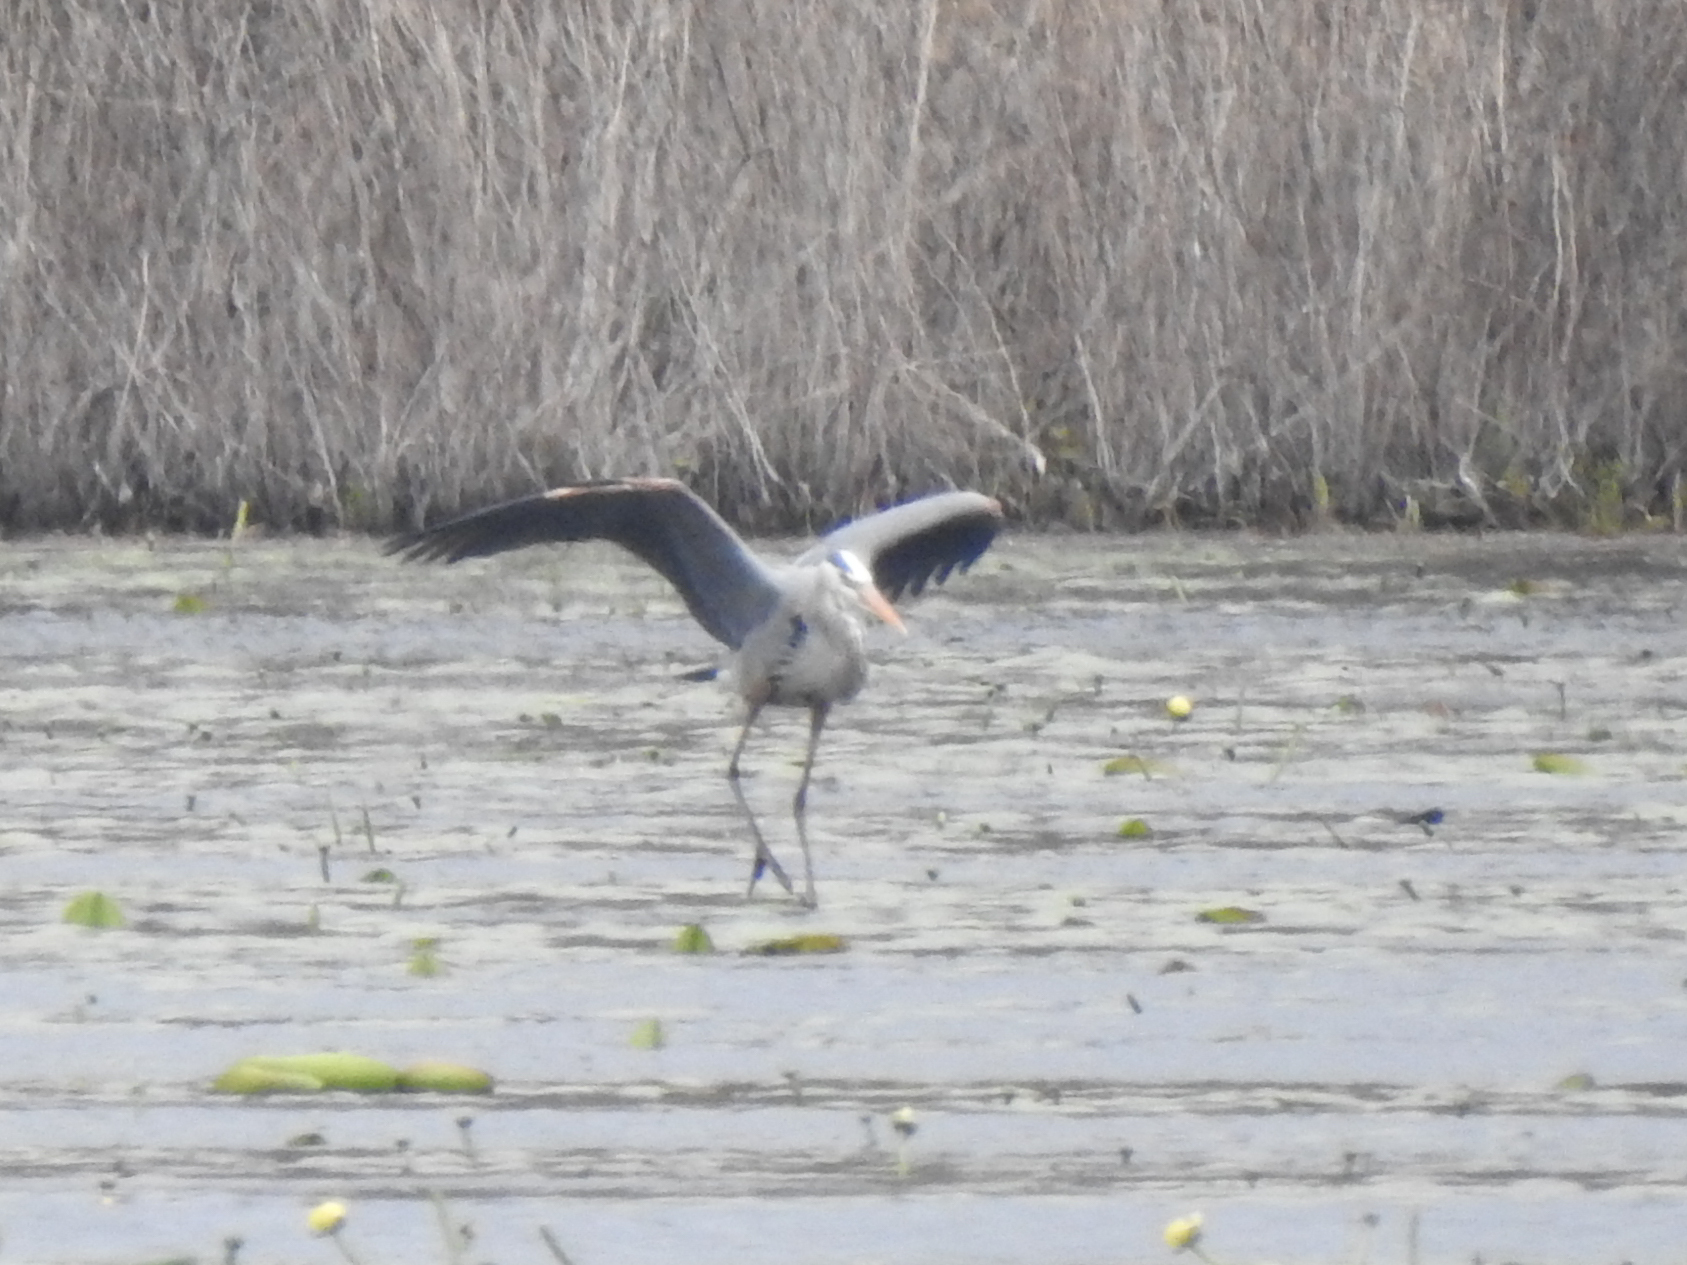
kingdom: Animalia
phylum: Chordata
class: Aves
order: Pelecaniformes
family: Ardeidae
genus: Ardea
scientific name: Ardea herodias
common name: Great blue heron
